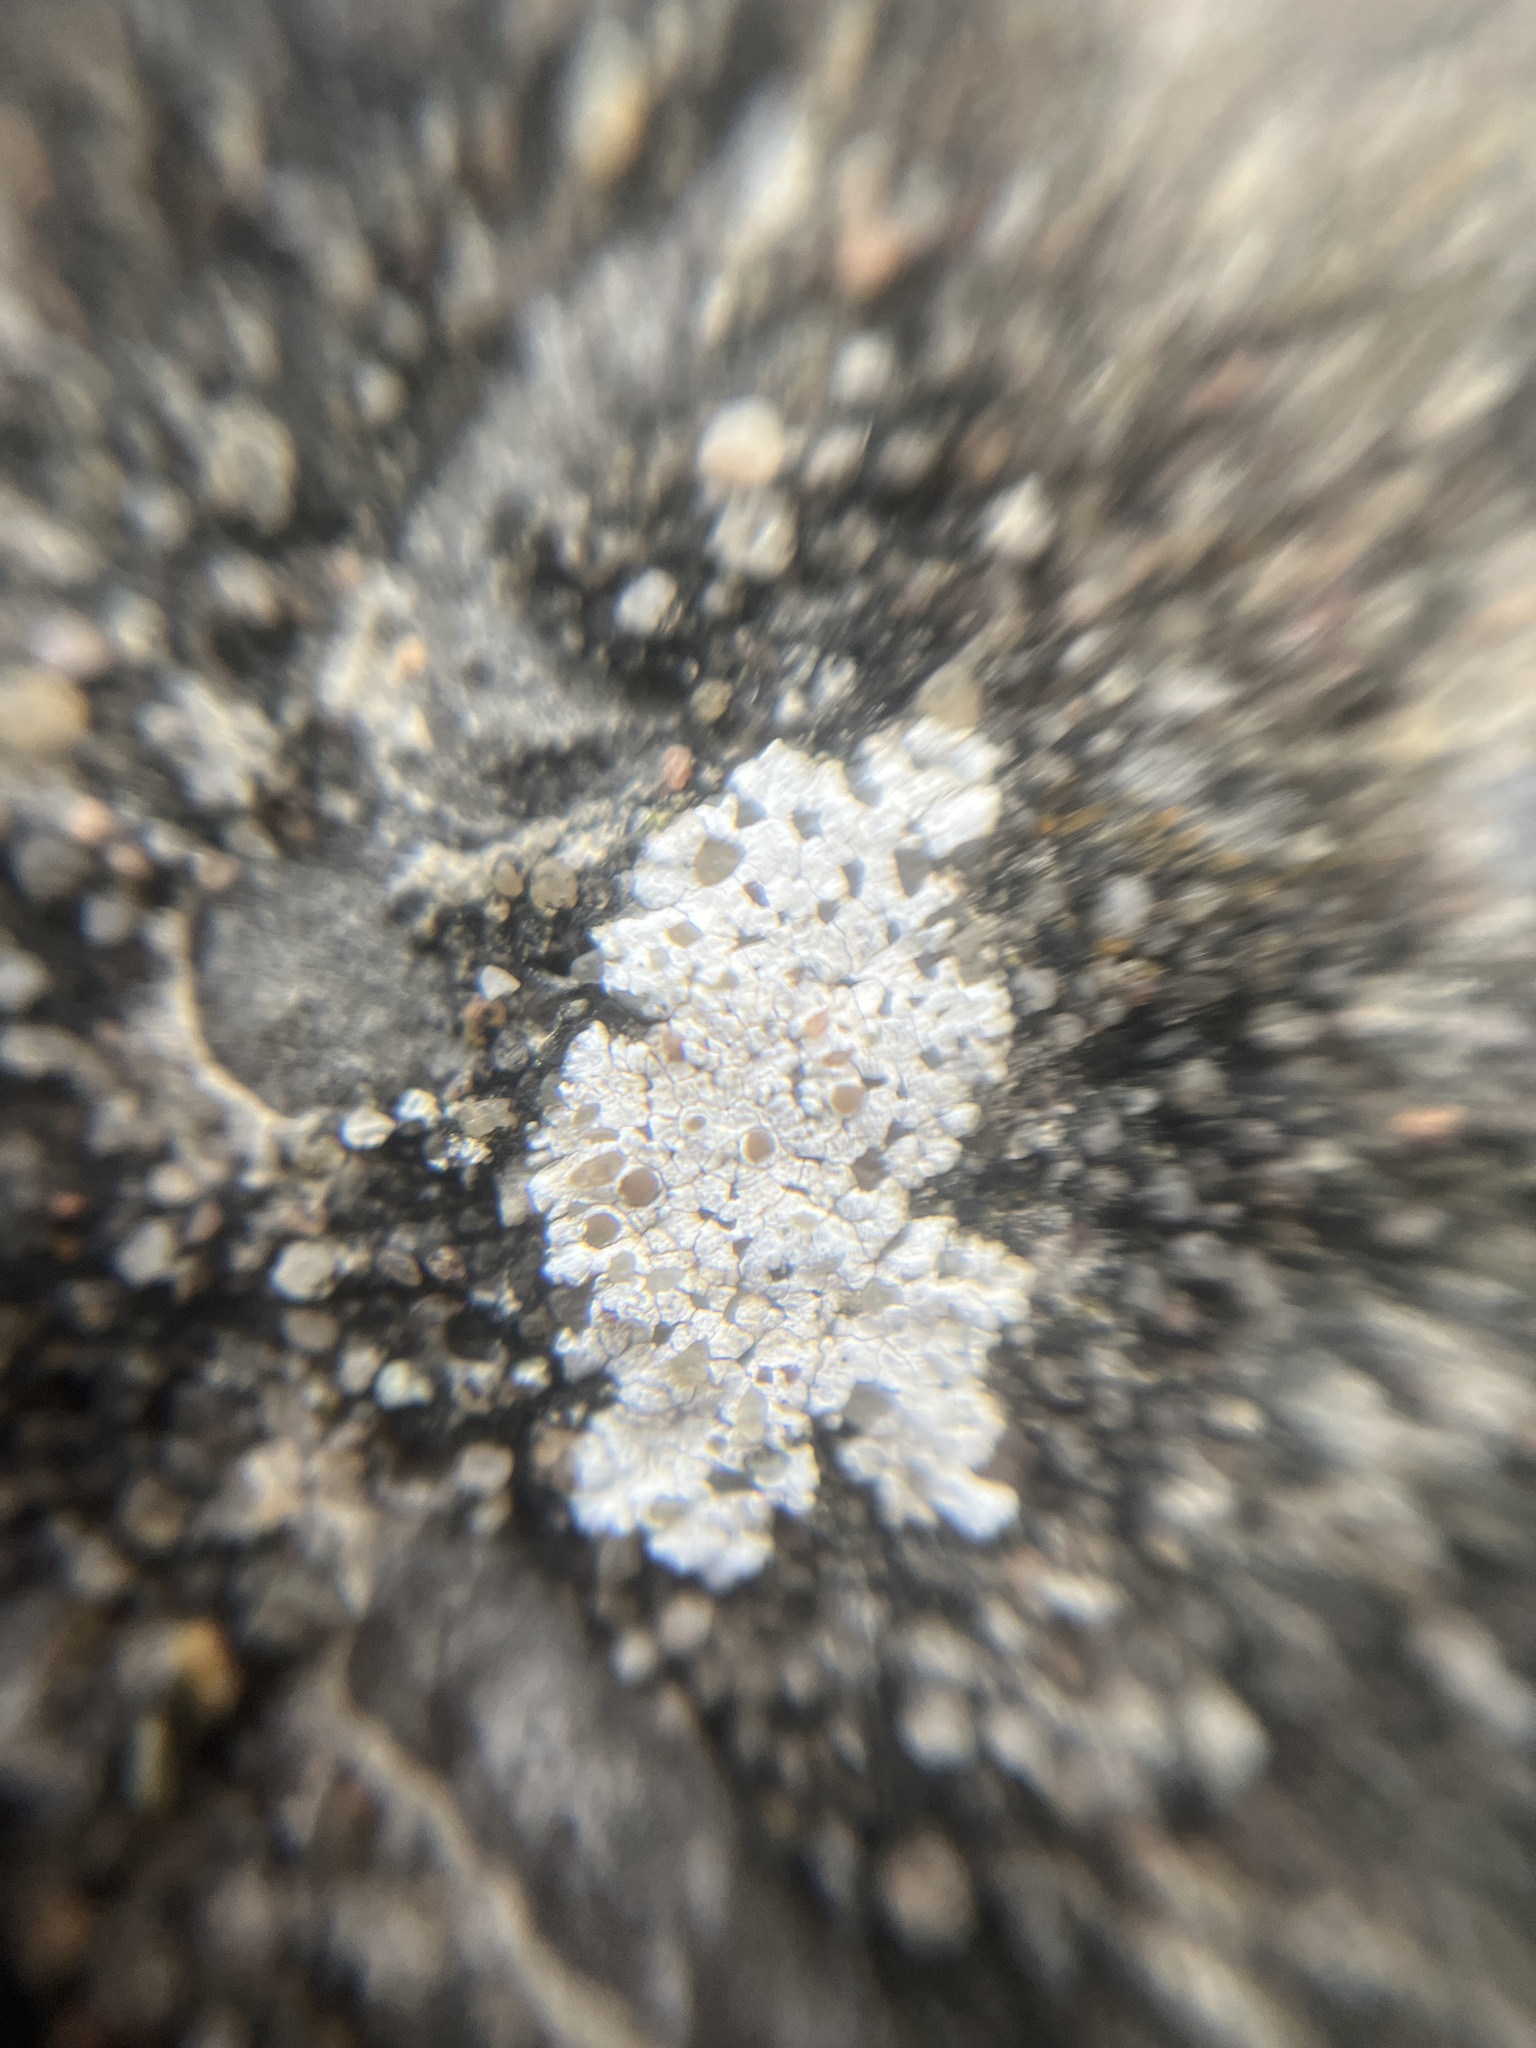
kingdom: Fungi
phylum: Ascomycota
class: Lecanoromycetes
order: Lecanorales
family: Lecanoraceae
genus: Polyozosia
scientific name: Polyozosia albescens
